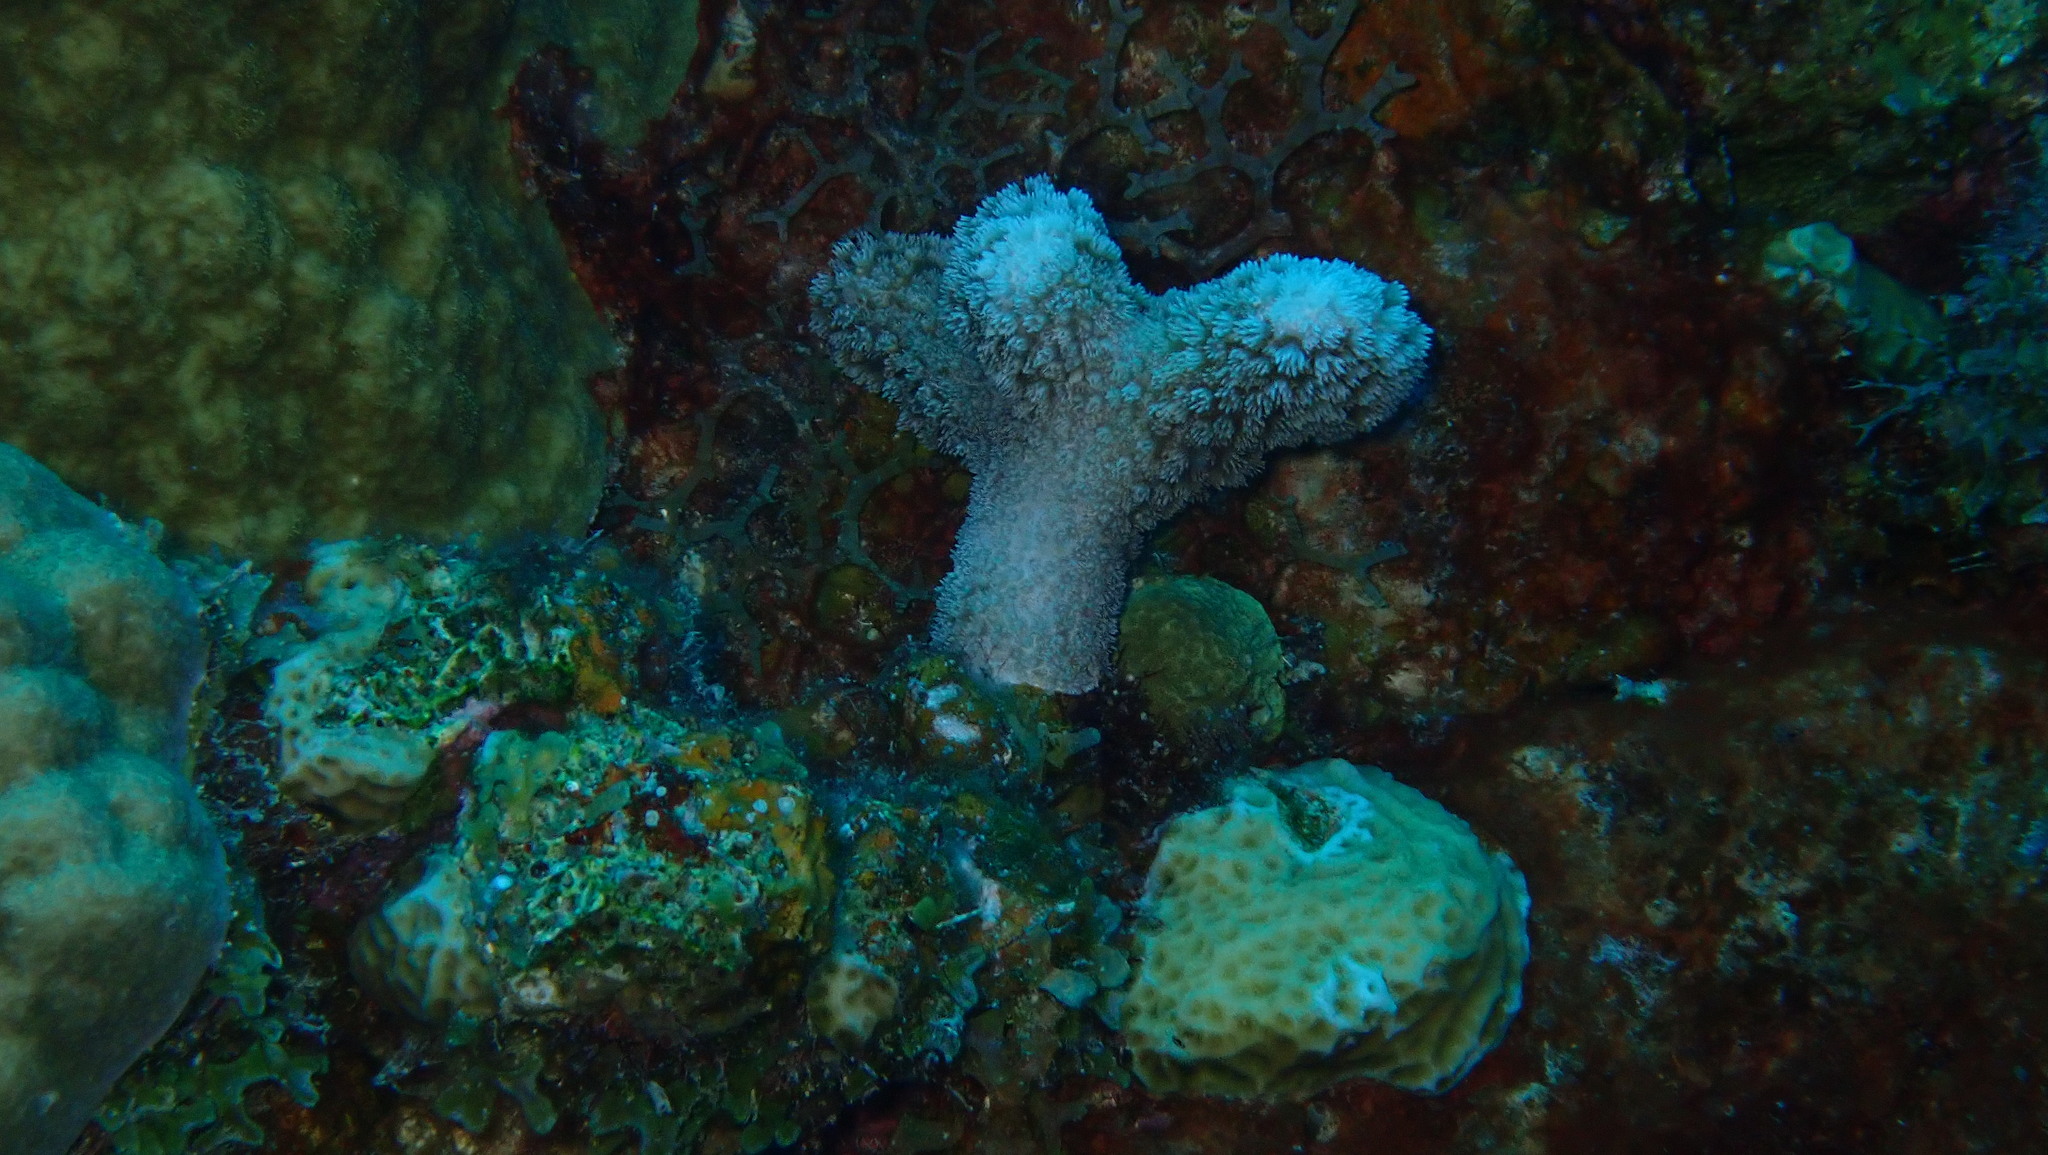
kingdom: Animalia
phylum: Cnidaria
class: Anthozoa
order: Scleractinia
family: Poritidae
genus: Porites
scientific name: Porites porites
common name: Finger coral
